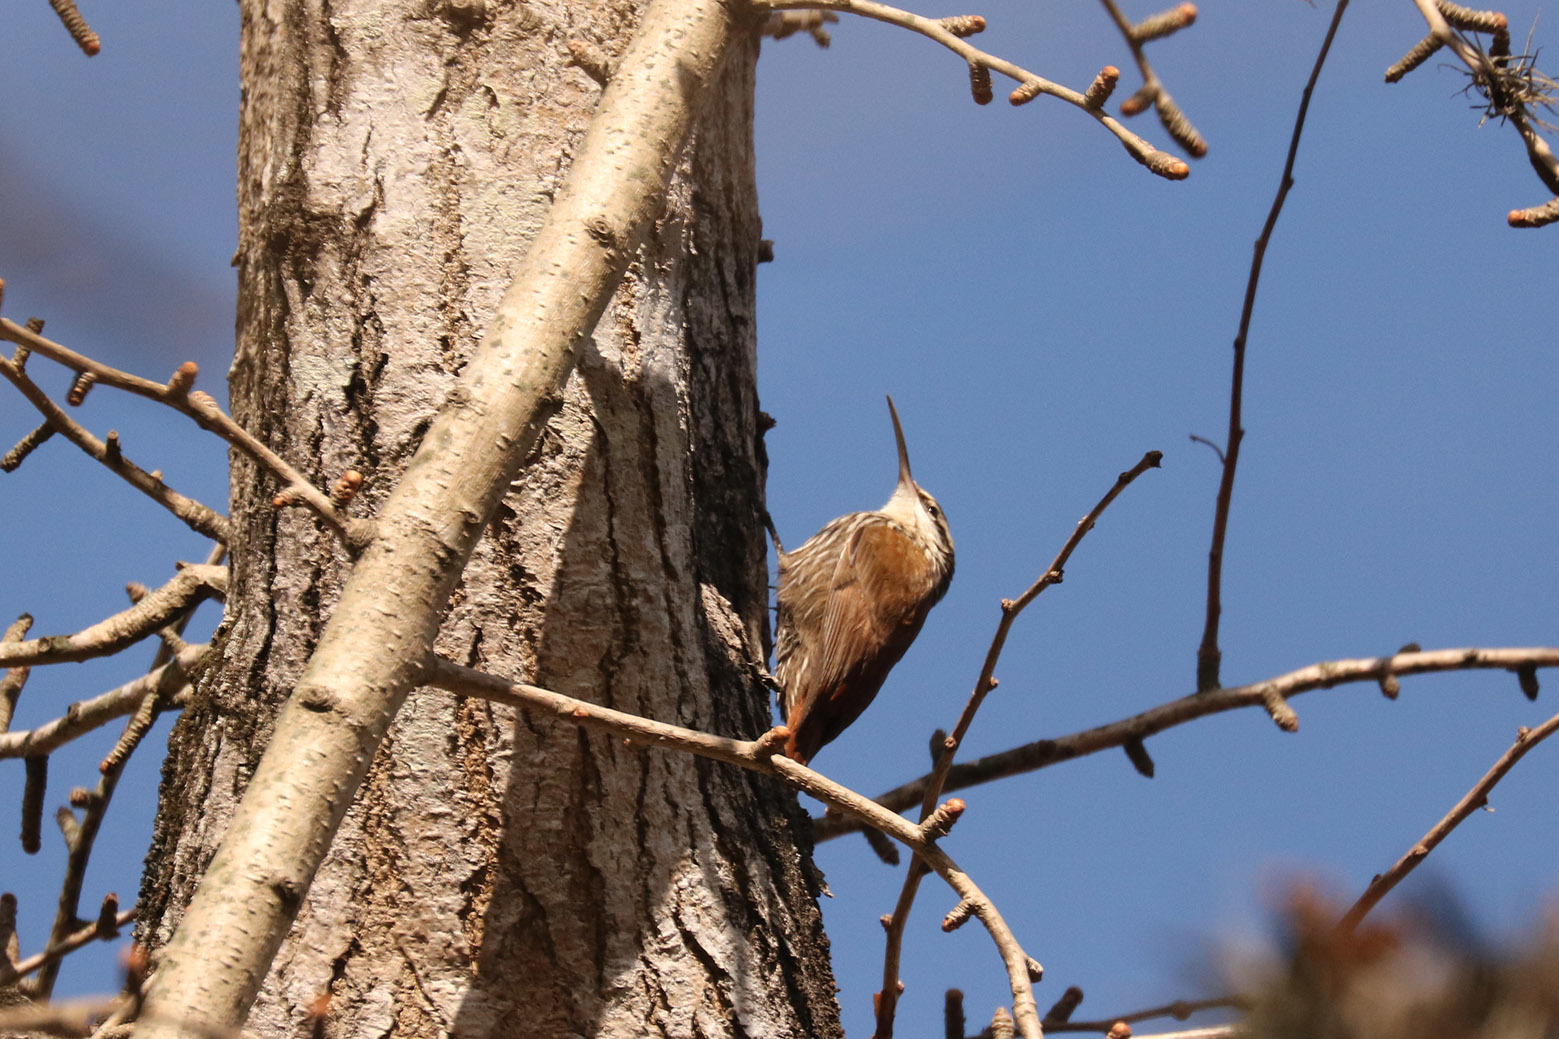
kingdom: Animalia
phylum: Chordata
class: Aves
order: Passeriformes
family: Furnariidae
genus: Lepidocolaptes
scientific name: Lepidocolaptes angustirostris
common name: Narrow-billed woodcreeper
